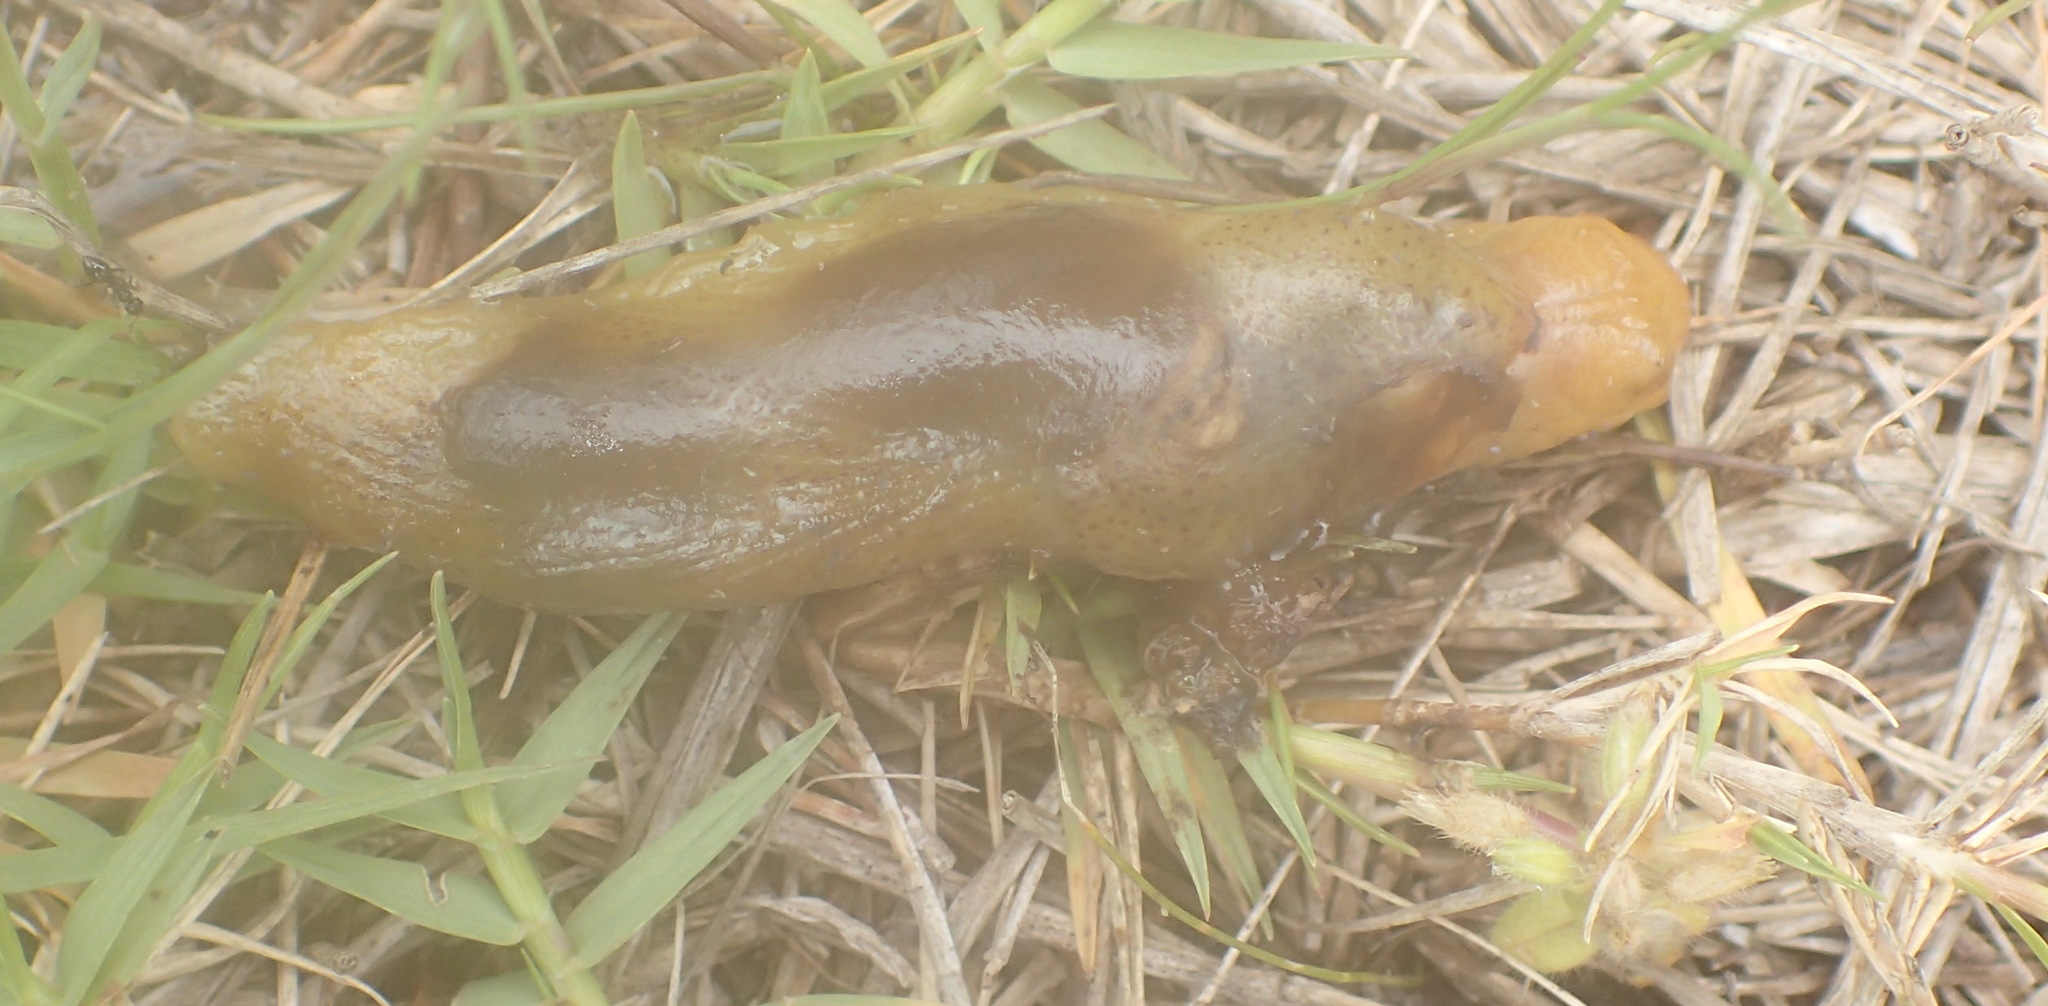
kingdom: Animalia
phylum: Mollusca
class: Gastropoda
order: Stylommatophora
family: Oopeltidae
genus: Oopelta
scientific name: Oopelta capensis
